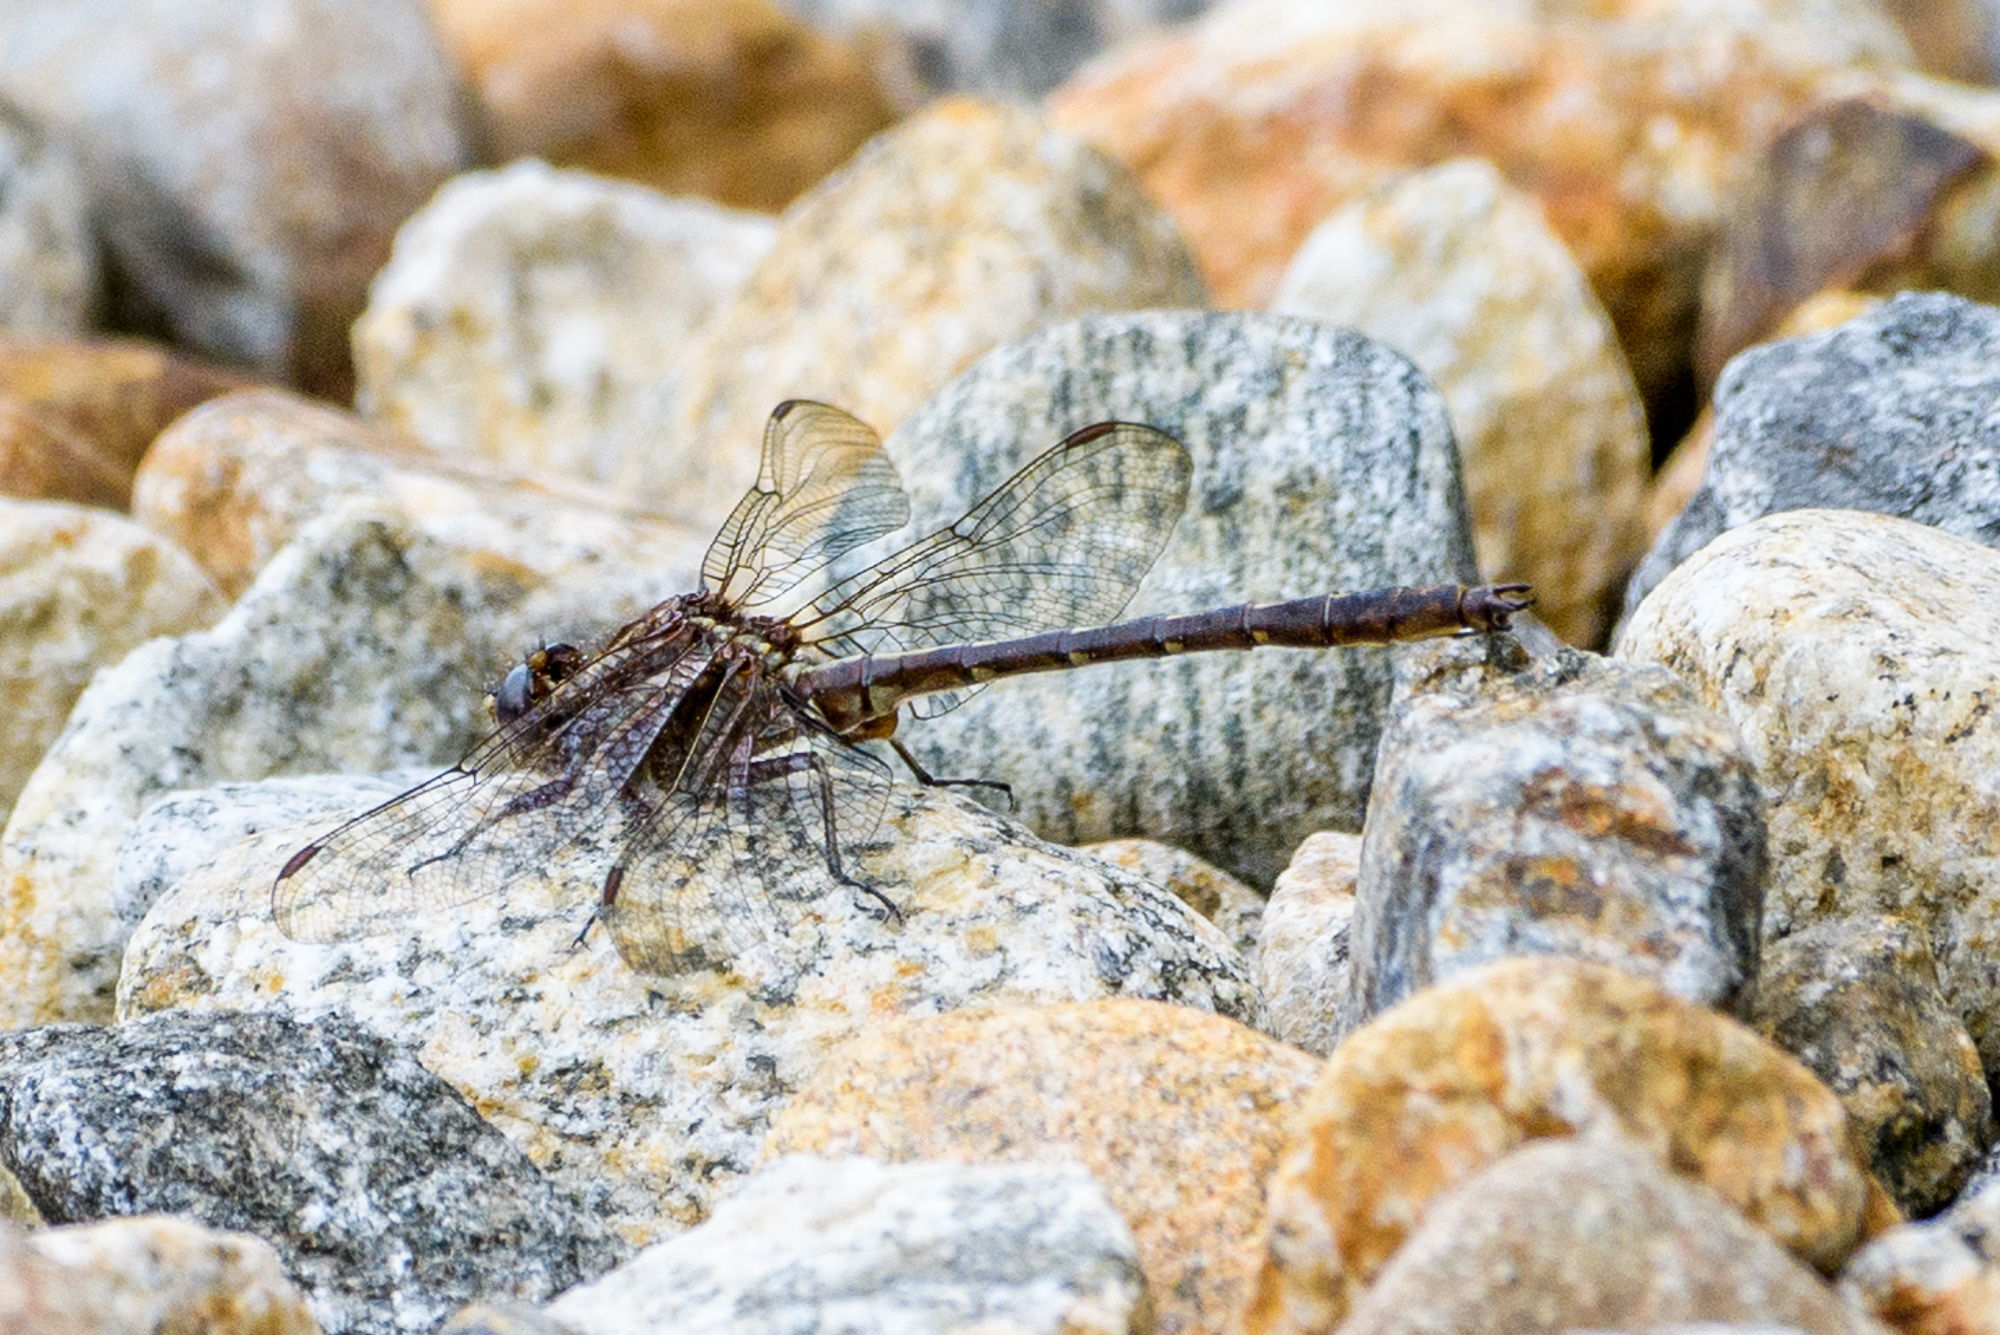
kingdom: Animalia
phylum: Arthropoda
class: Insecta
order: Odonata
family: Gomphidae
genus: Phanogomphus
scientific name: Phanogomphus lividus
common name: Ashy clubtail
